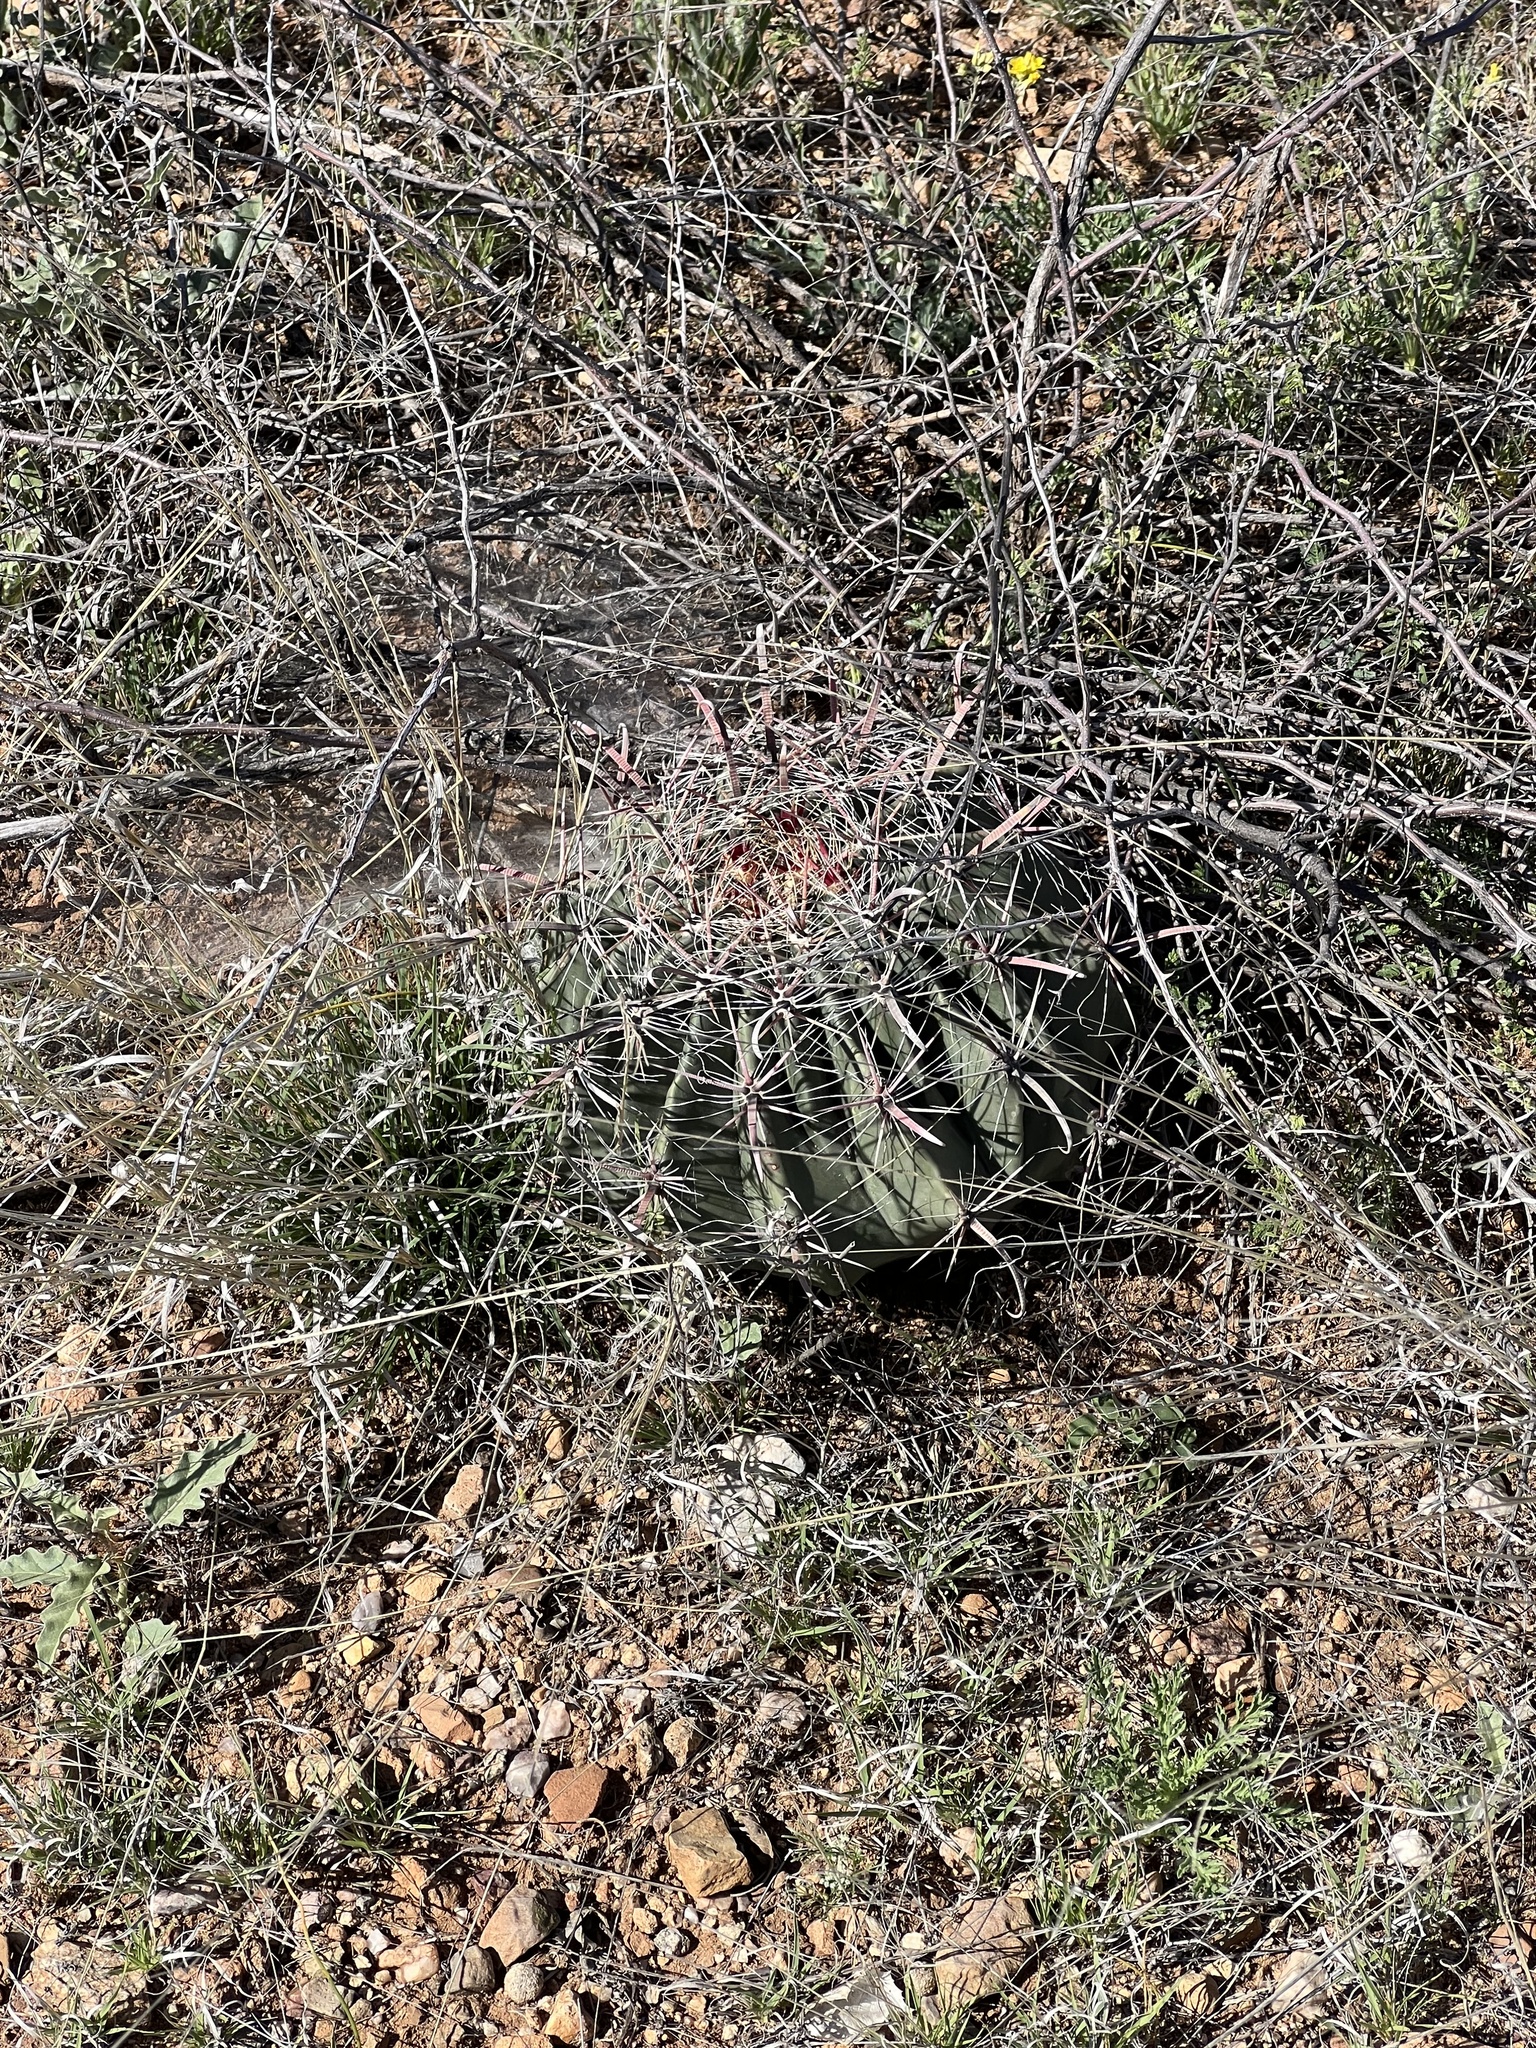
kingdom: Plantae
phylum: Tracheophyta
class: Magnoliopsida
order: Caryophyllales
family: Cactaceae
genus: Ferocactus
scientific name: Ferocactus wislizeni
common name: Candy barrel cactus
